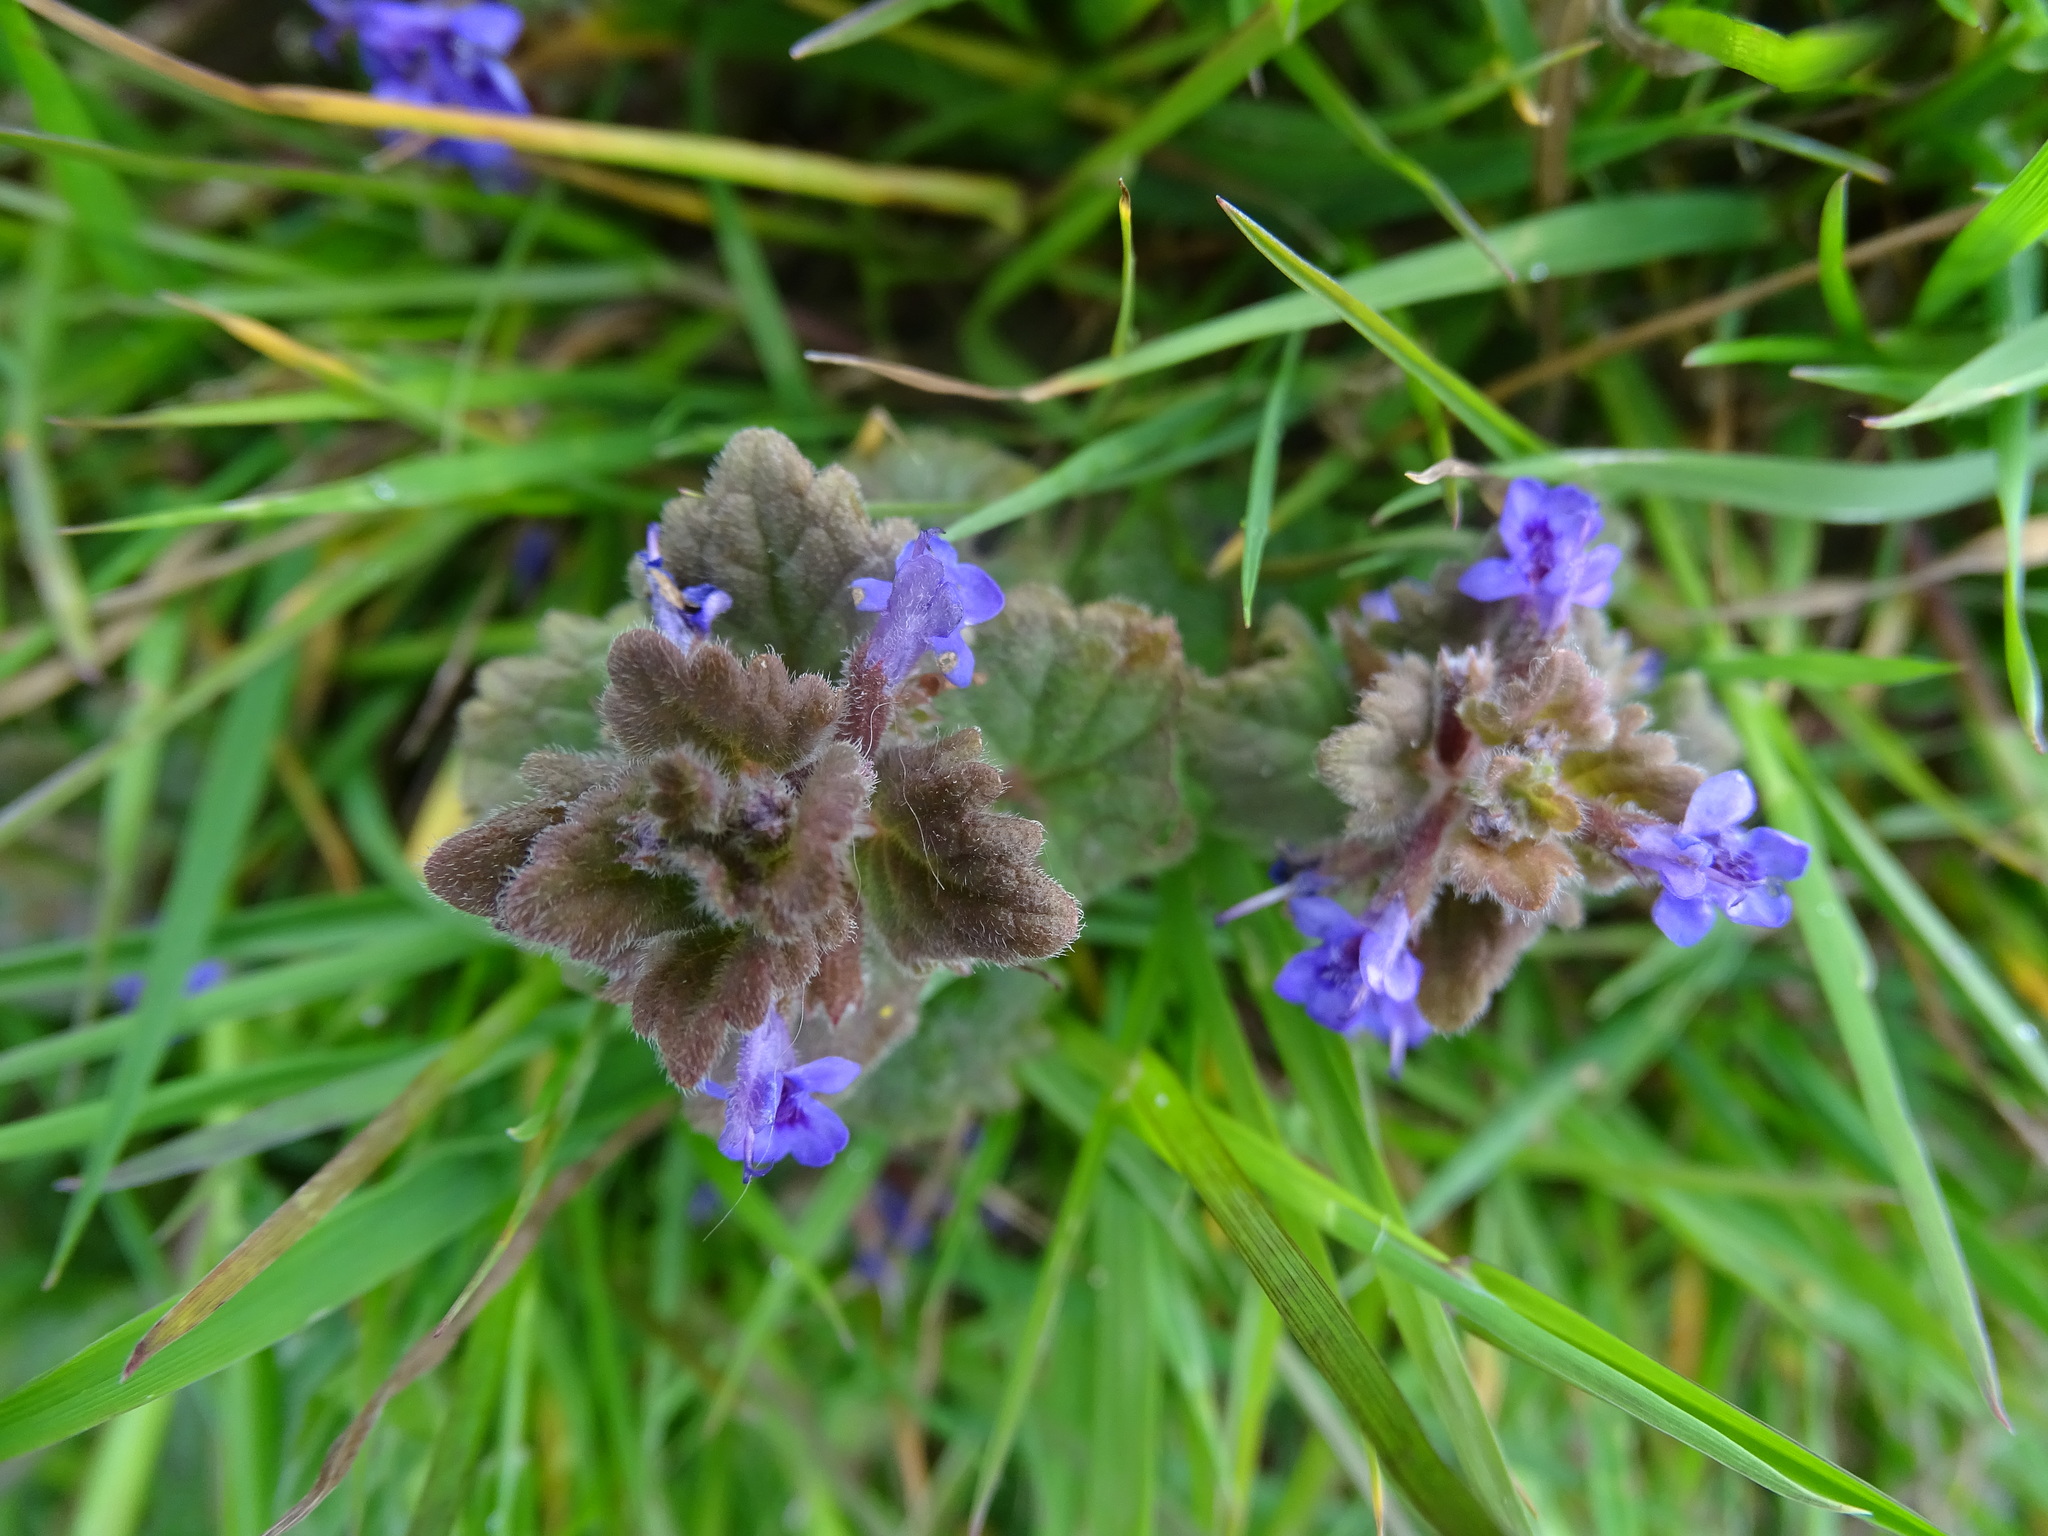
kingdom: Plantae
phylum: Tracheophyta
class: Magnoliopsida
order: Lamiales
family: Lamiaceae
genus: Glechoma
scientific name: Glechoma hederacea
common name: Ground ivy
